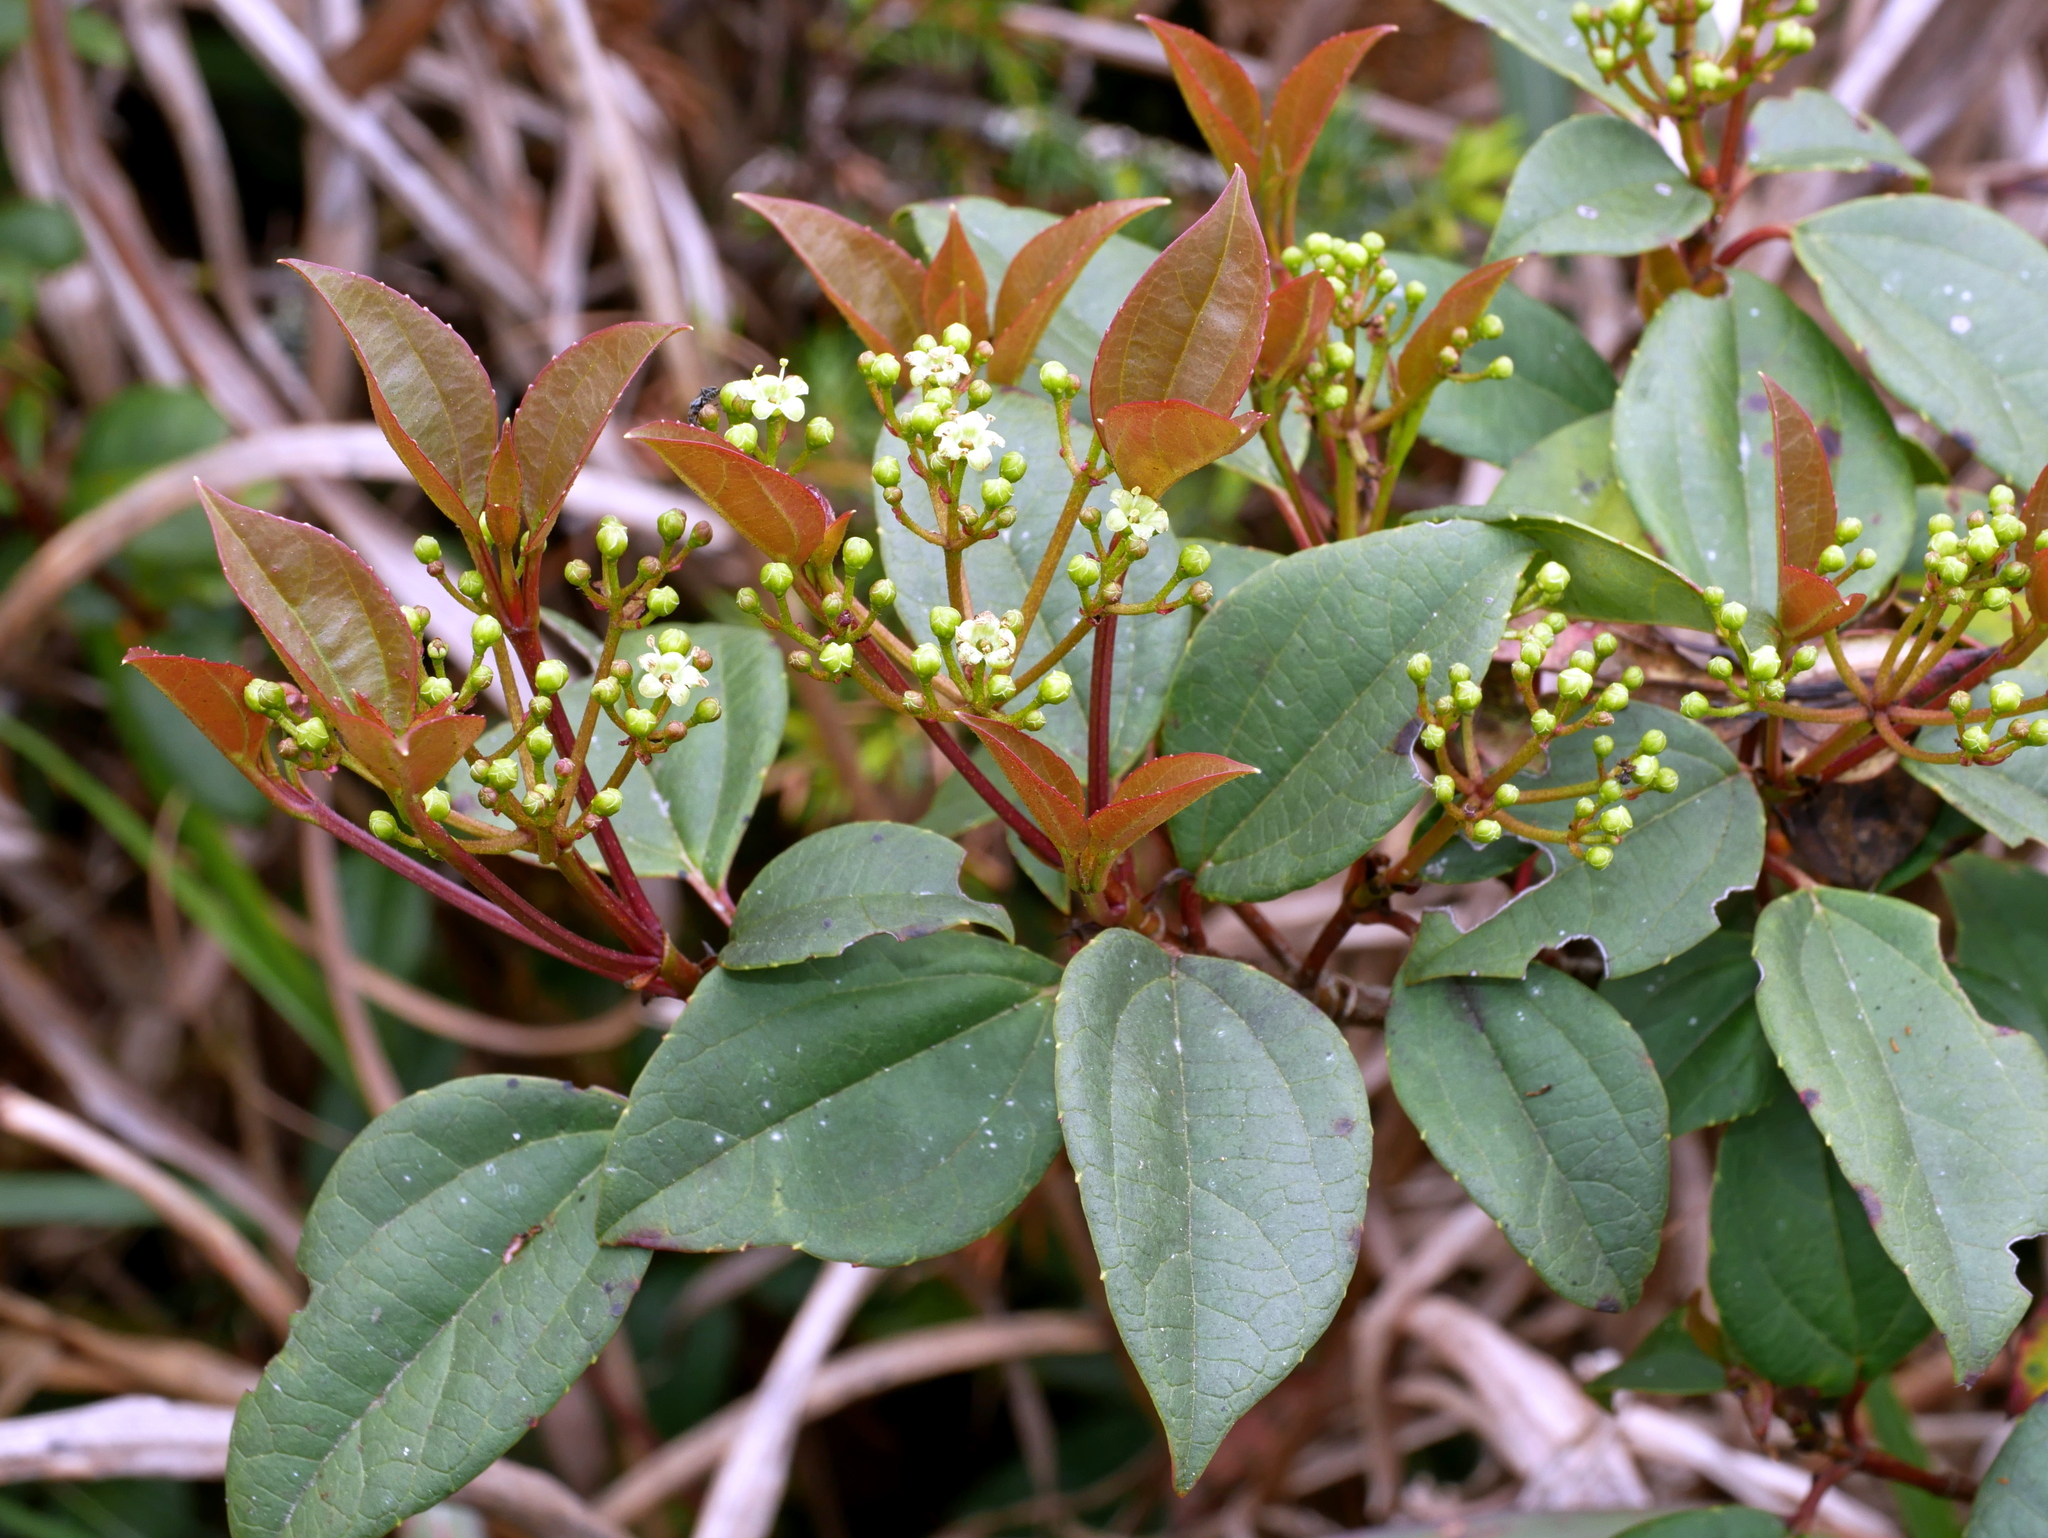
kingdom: Plantae
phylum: Tracheophyta
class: Magnoliopsida
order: Dipsacales
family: Viburnaceae
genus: Viburnum
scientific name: Viburnum propinquum
